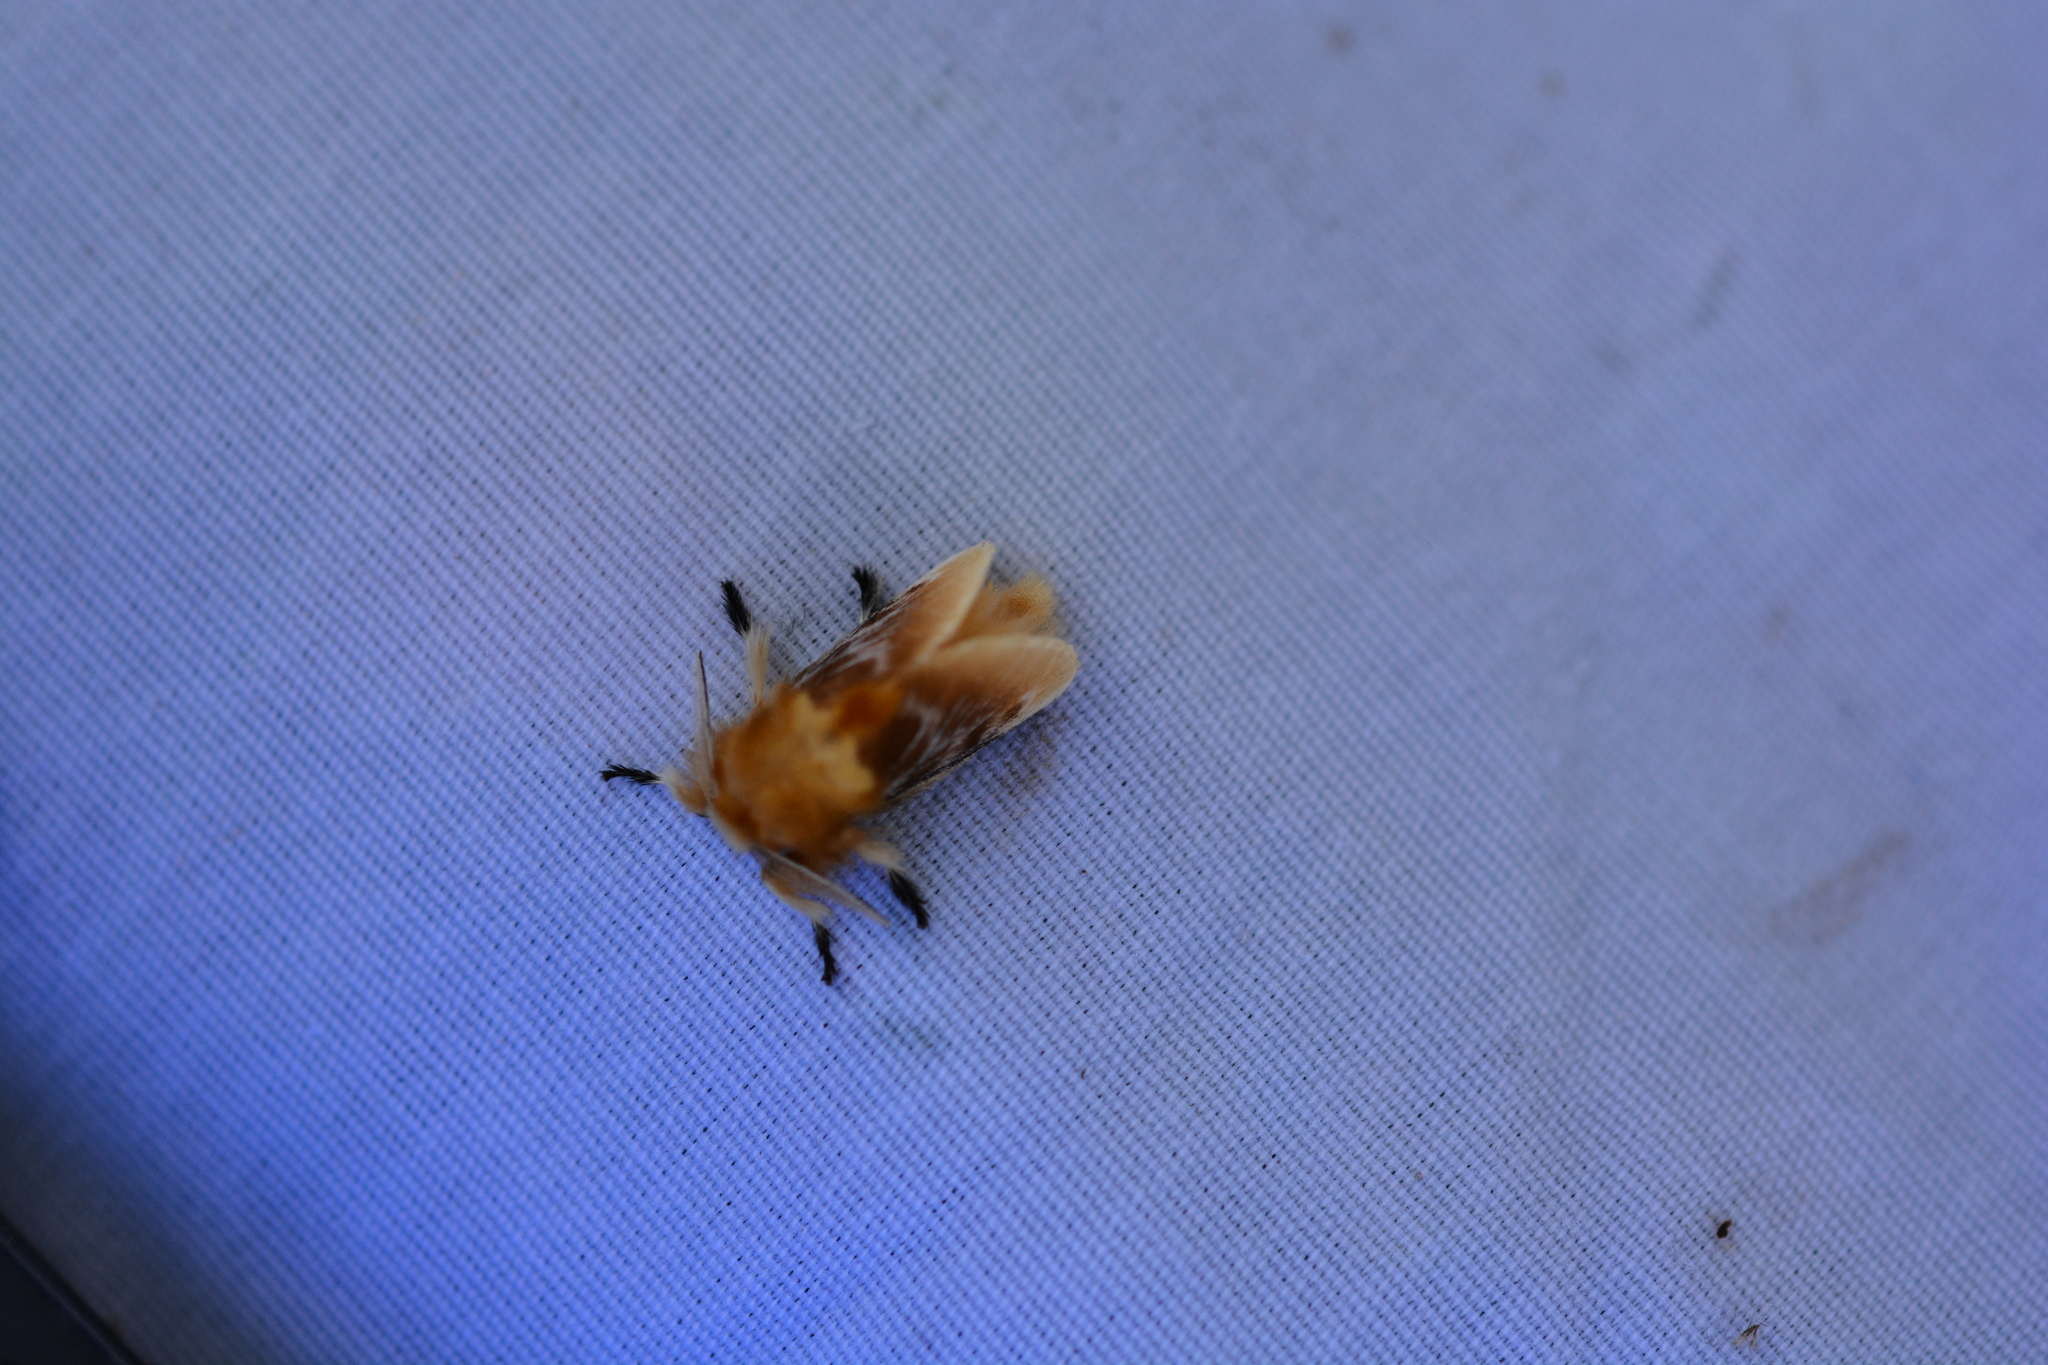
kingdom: Animalia
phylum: Arthropoda
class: Insecta
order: Lepidoptera
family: Megalopygidae
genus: Megalopyge
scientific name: Megalopyge opercularis
